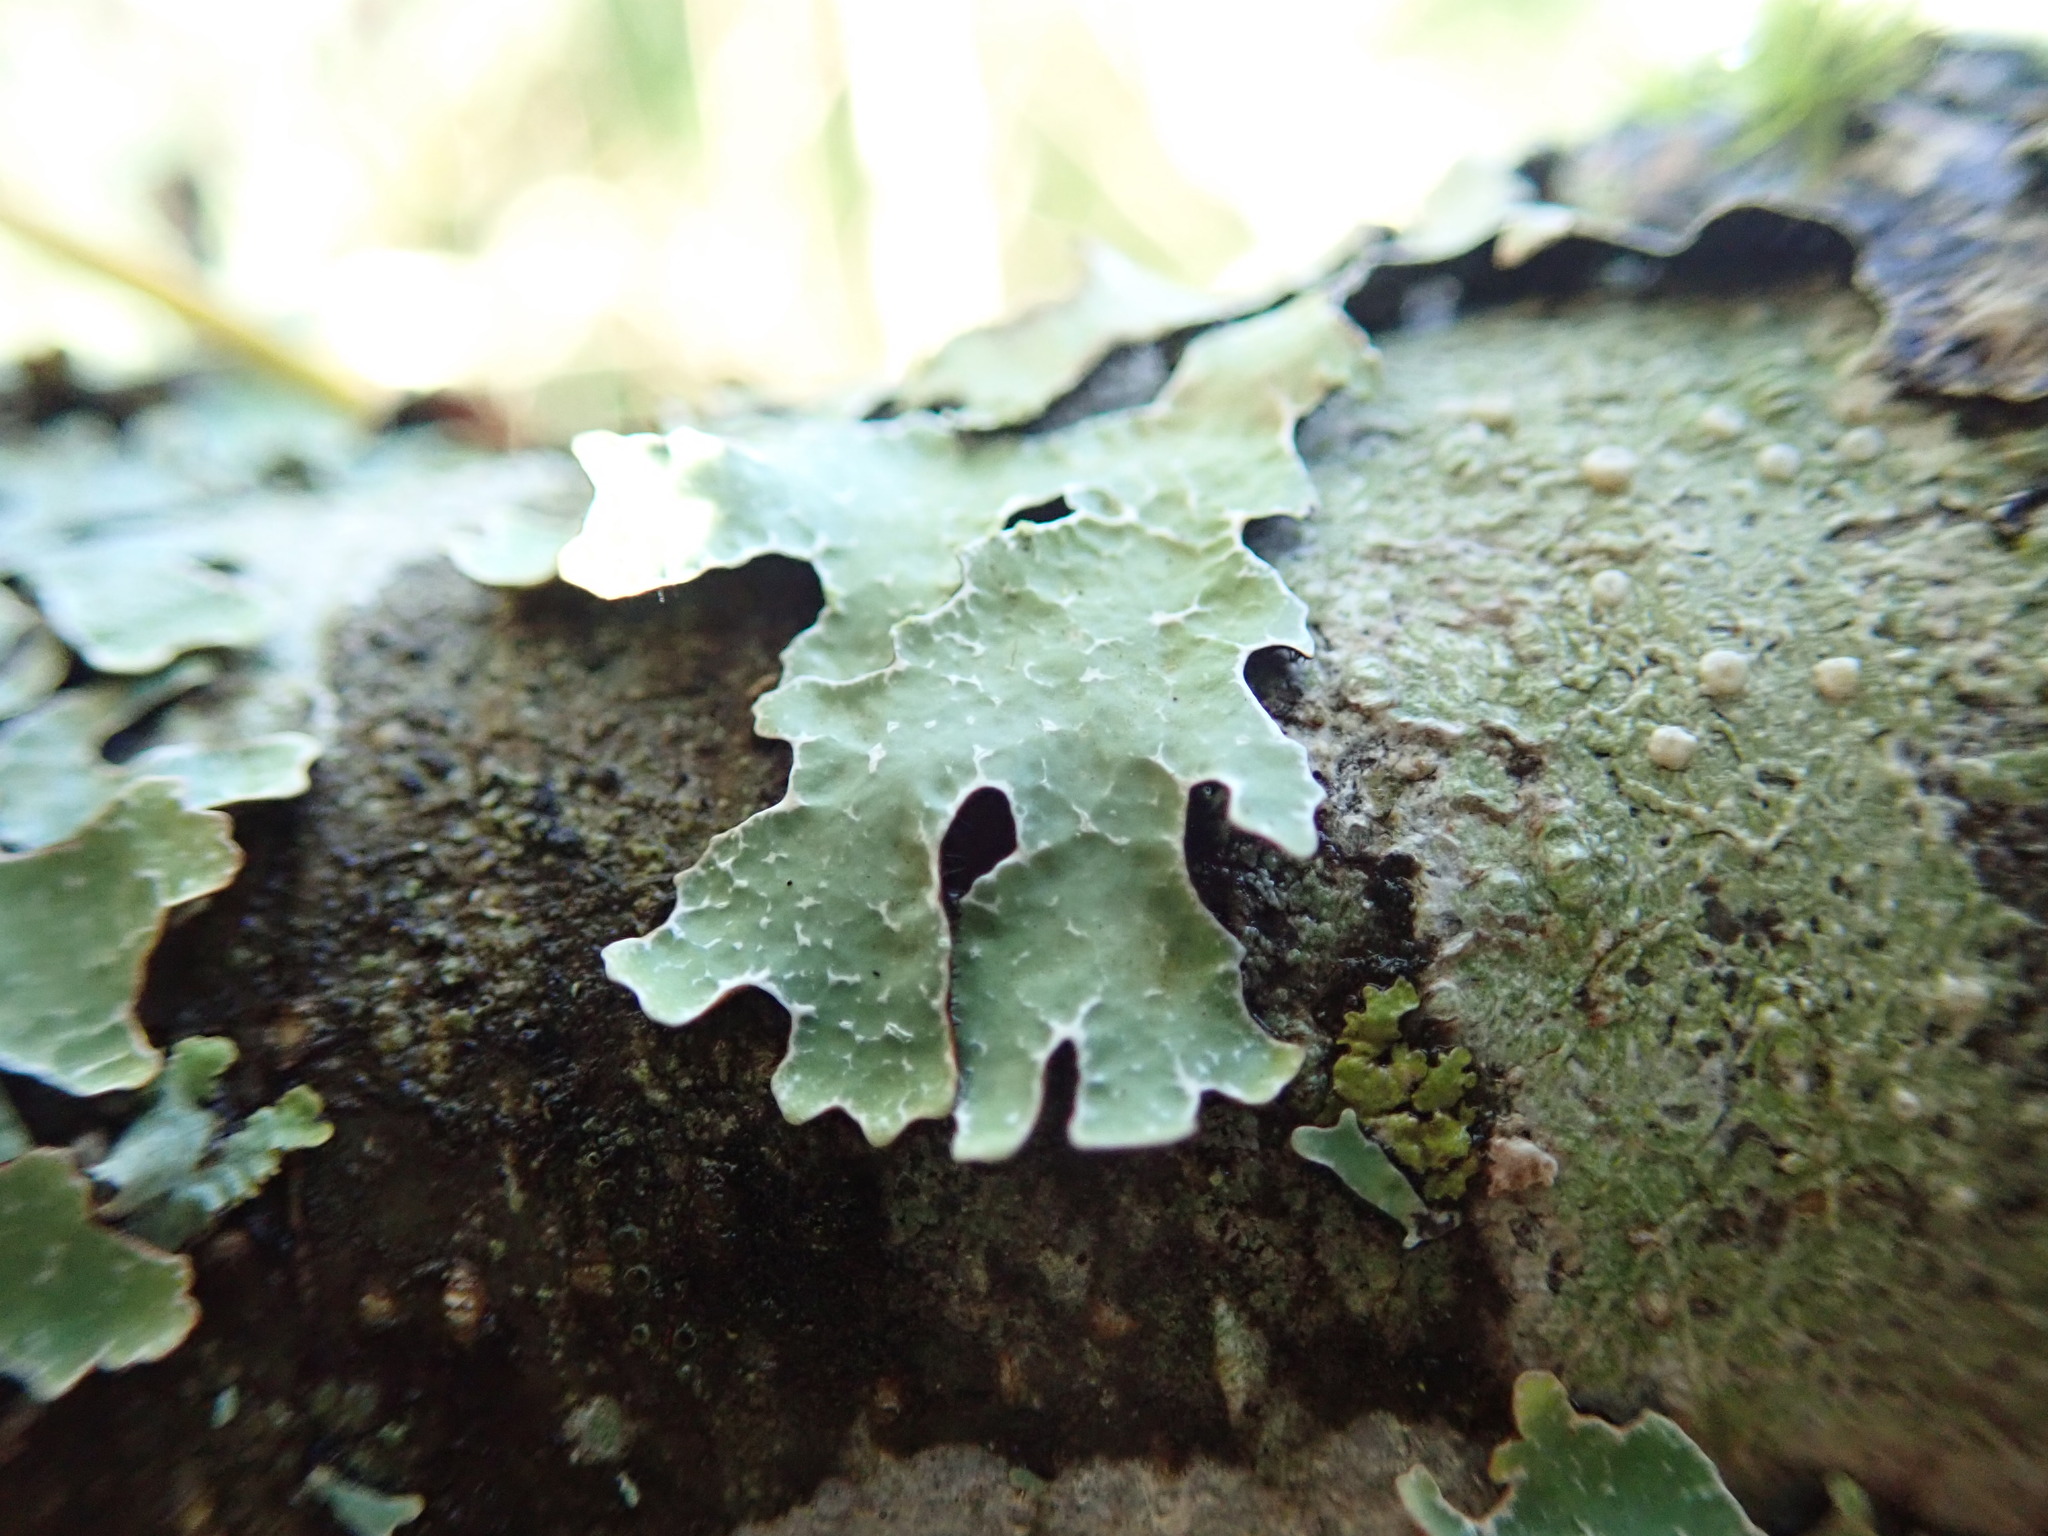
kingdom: Fungi
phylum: Ascomycota
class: Lecanoromycetes
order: Lecanorales
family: Parmeliaceae
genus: Parmelia
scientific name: Parmelia sulcata
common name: Netted shield lichen
